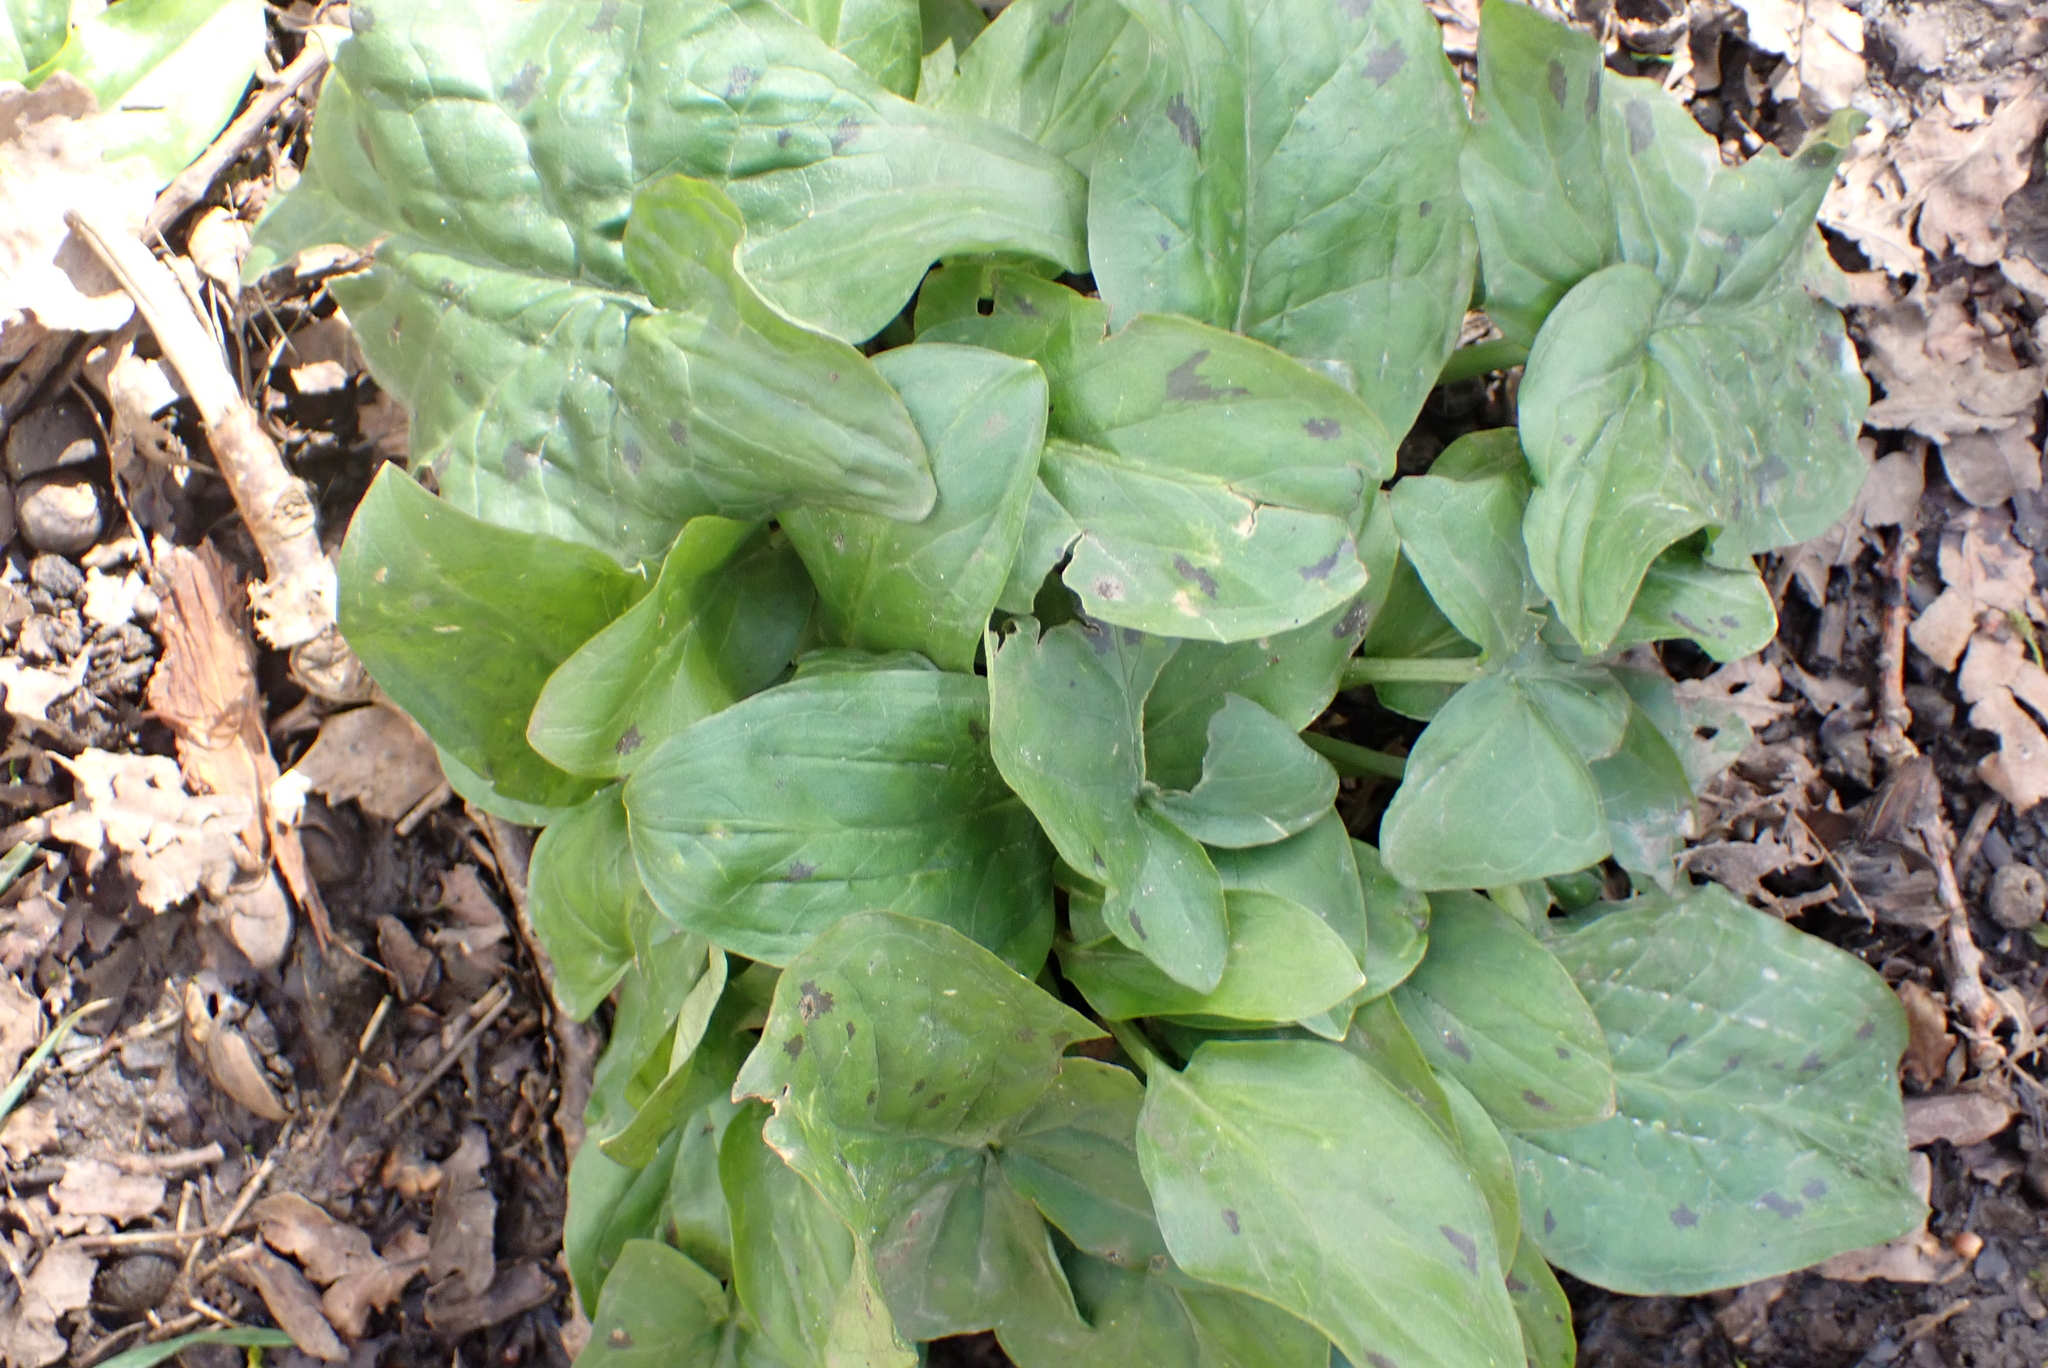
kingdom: Plantae
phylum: Tracheophyta
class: Liliopsida
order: Alismatales
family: Araceae
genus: Arum
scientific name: Arum maculatum
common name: Lords-and-ladies
